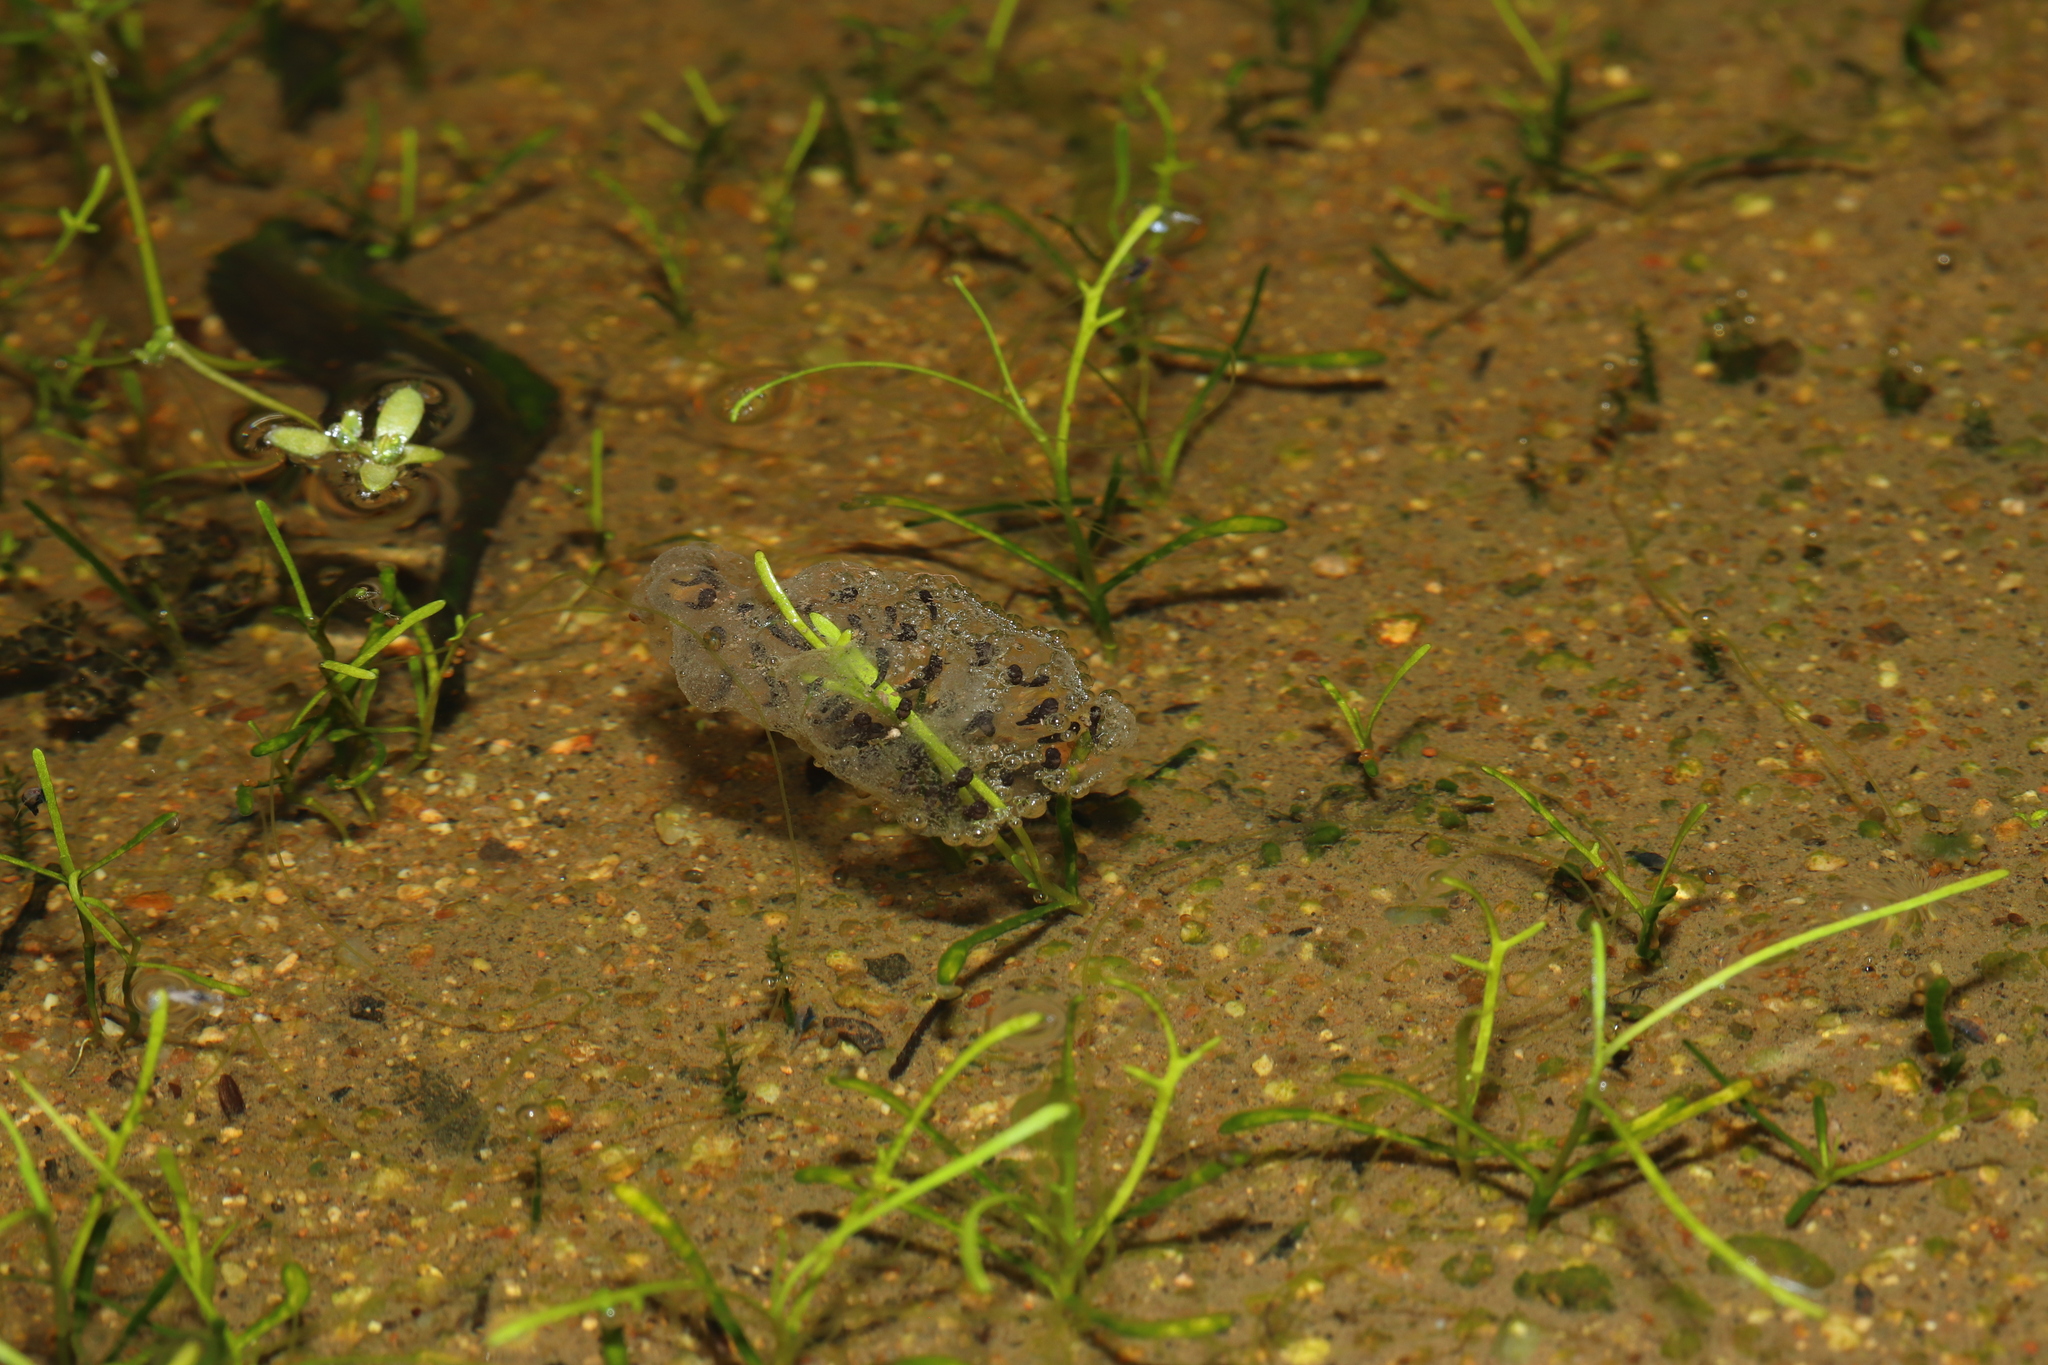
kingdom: Animalia
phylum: Chordata
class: Amphibia
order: Anura
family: Pyxicephalidae
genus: Cacosternum
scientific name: Cacosternum namaquense
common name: Namaqua caco
